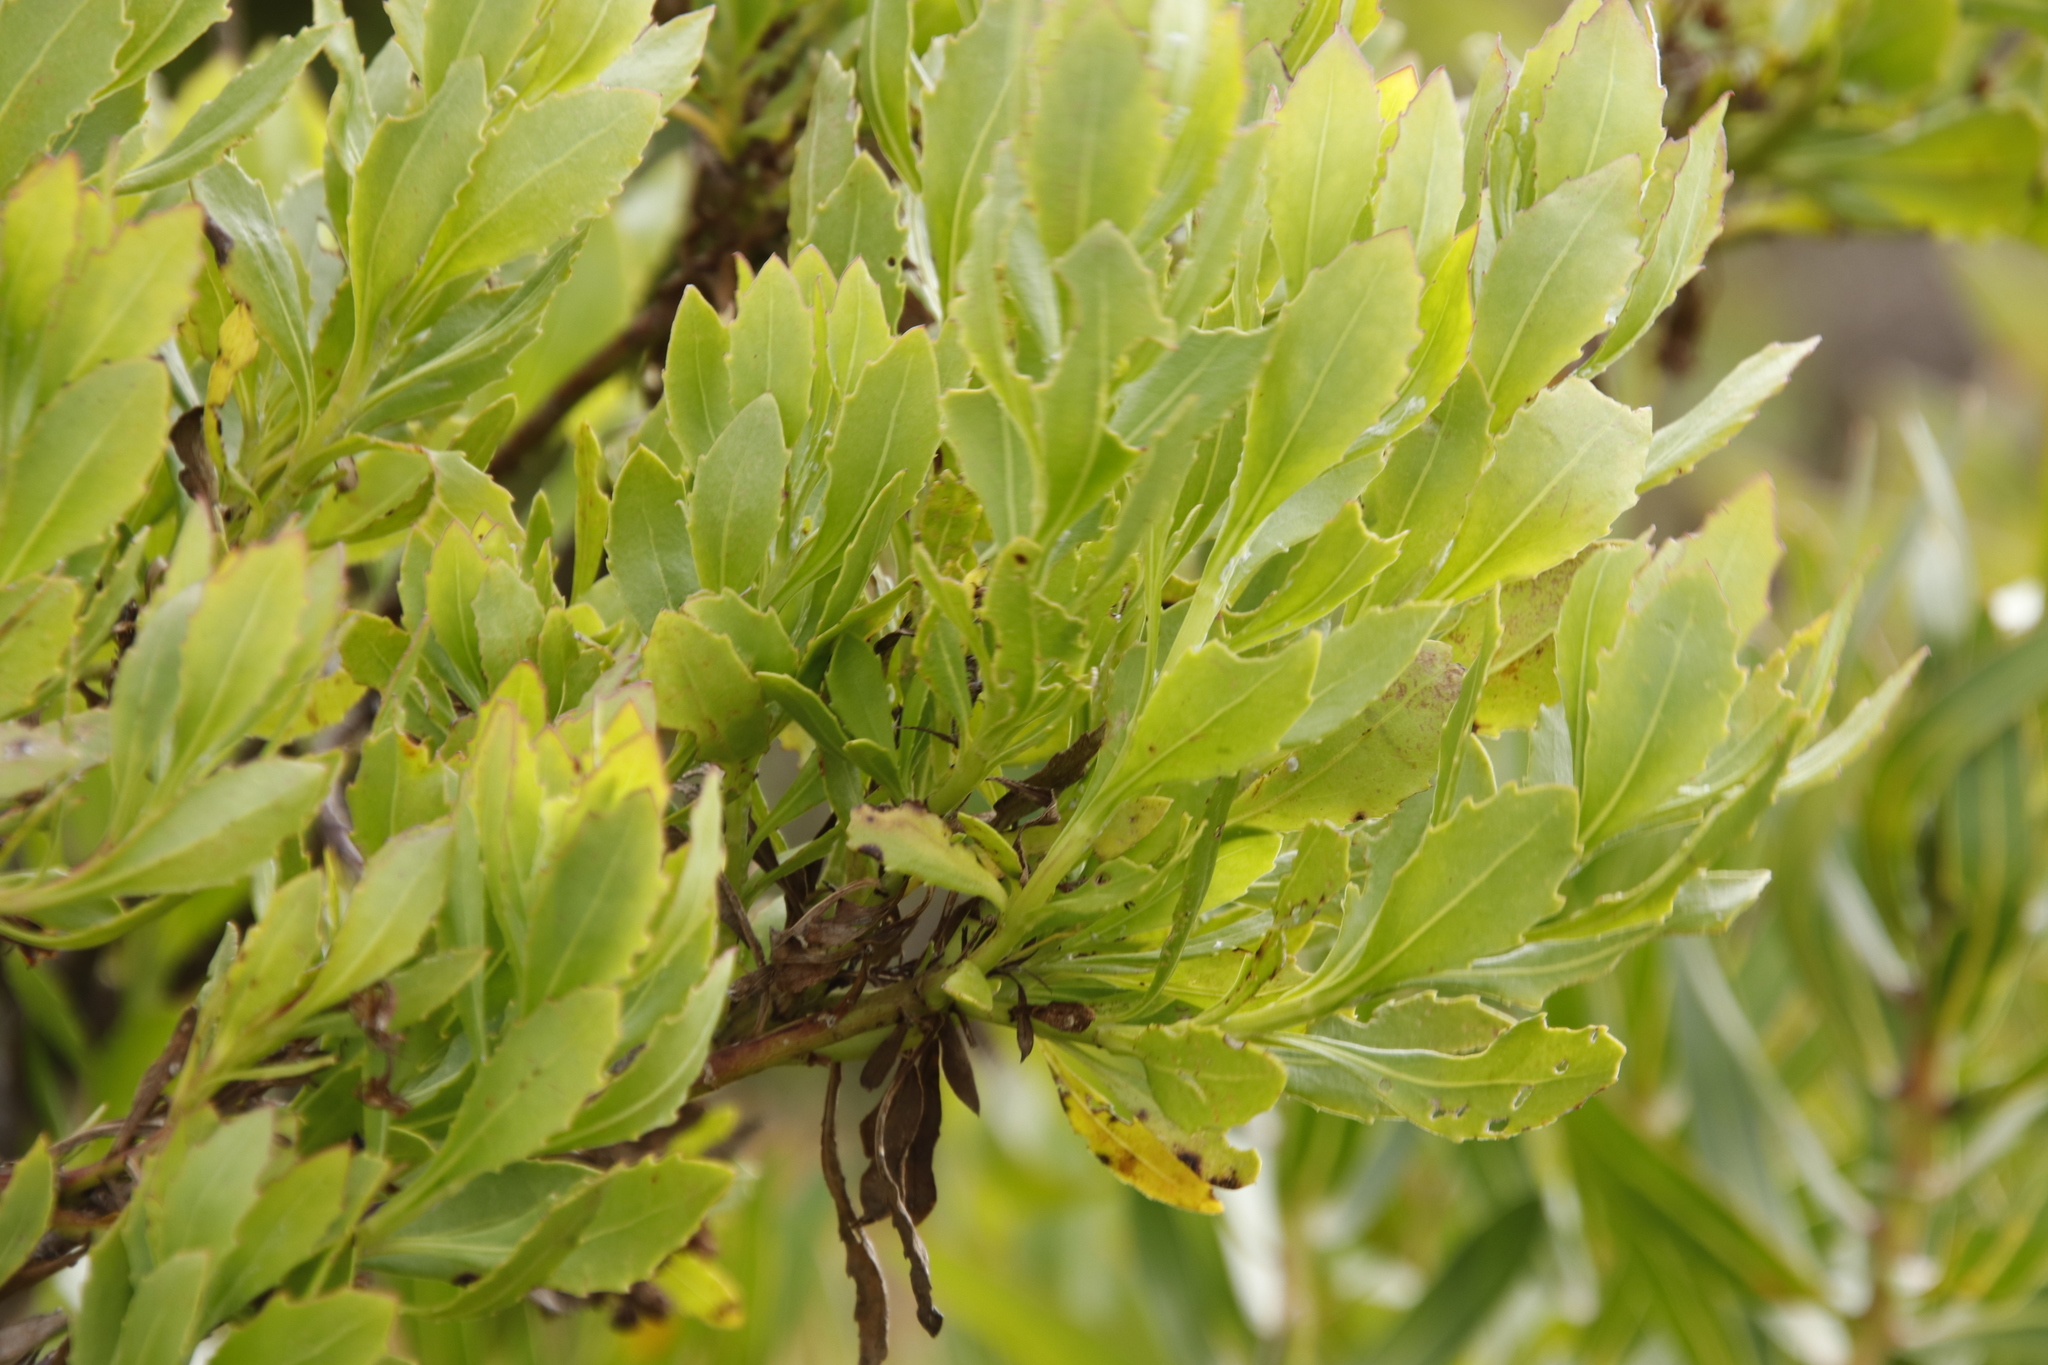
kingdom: Plantae
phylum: Tracheophyta
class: Magnoliopsida
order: Asterales
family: Asteraceae
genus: Osteospermum
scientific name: Osteospermum moniliferum
